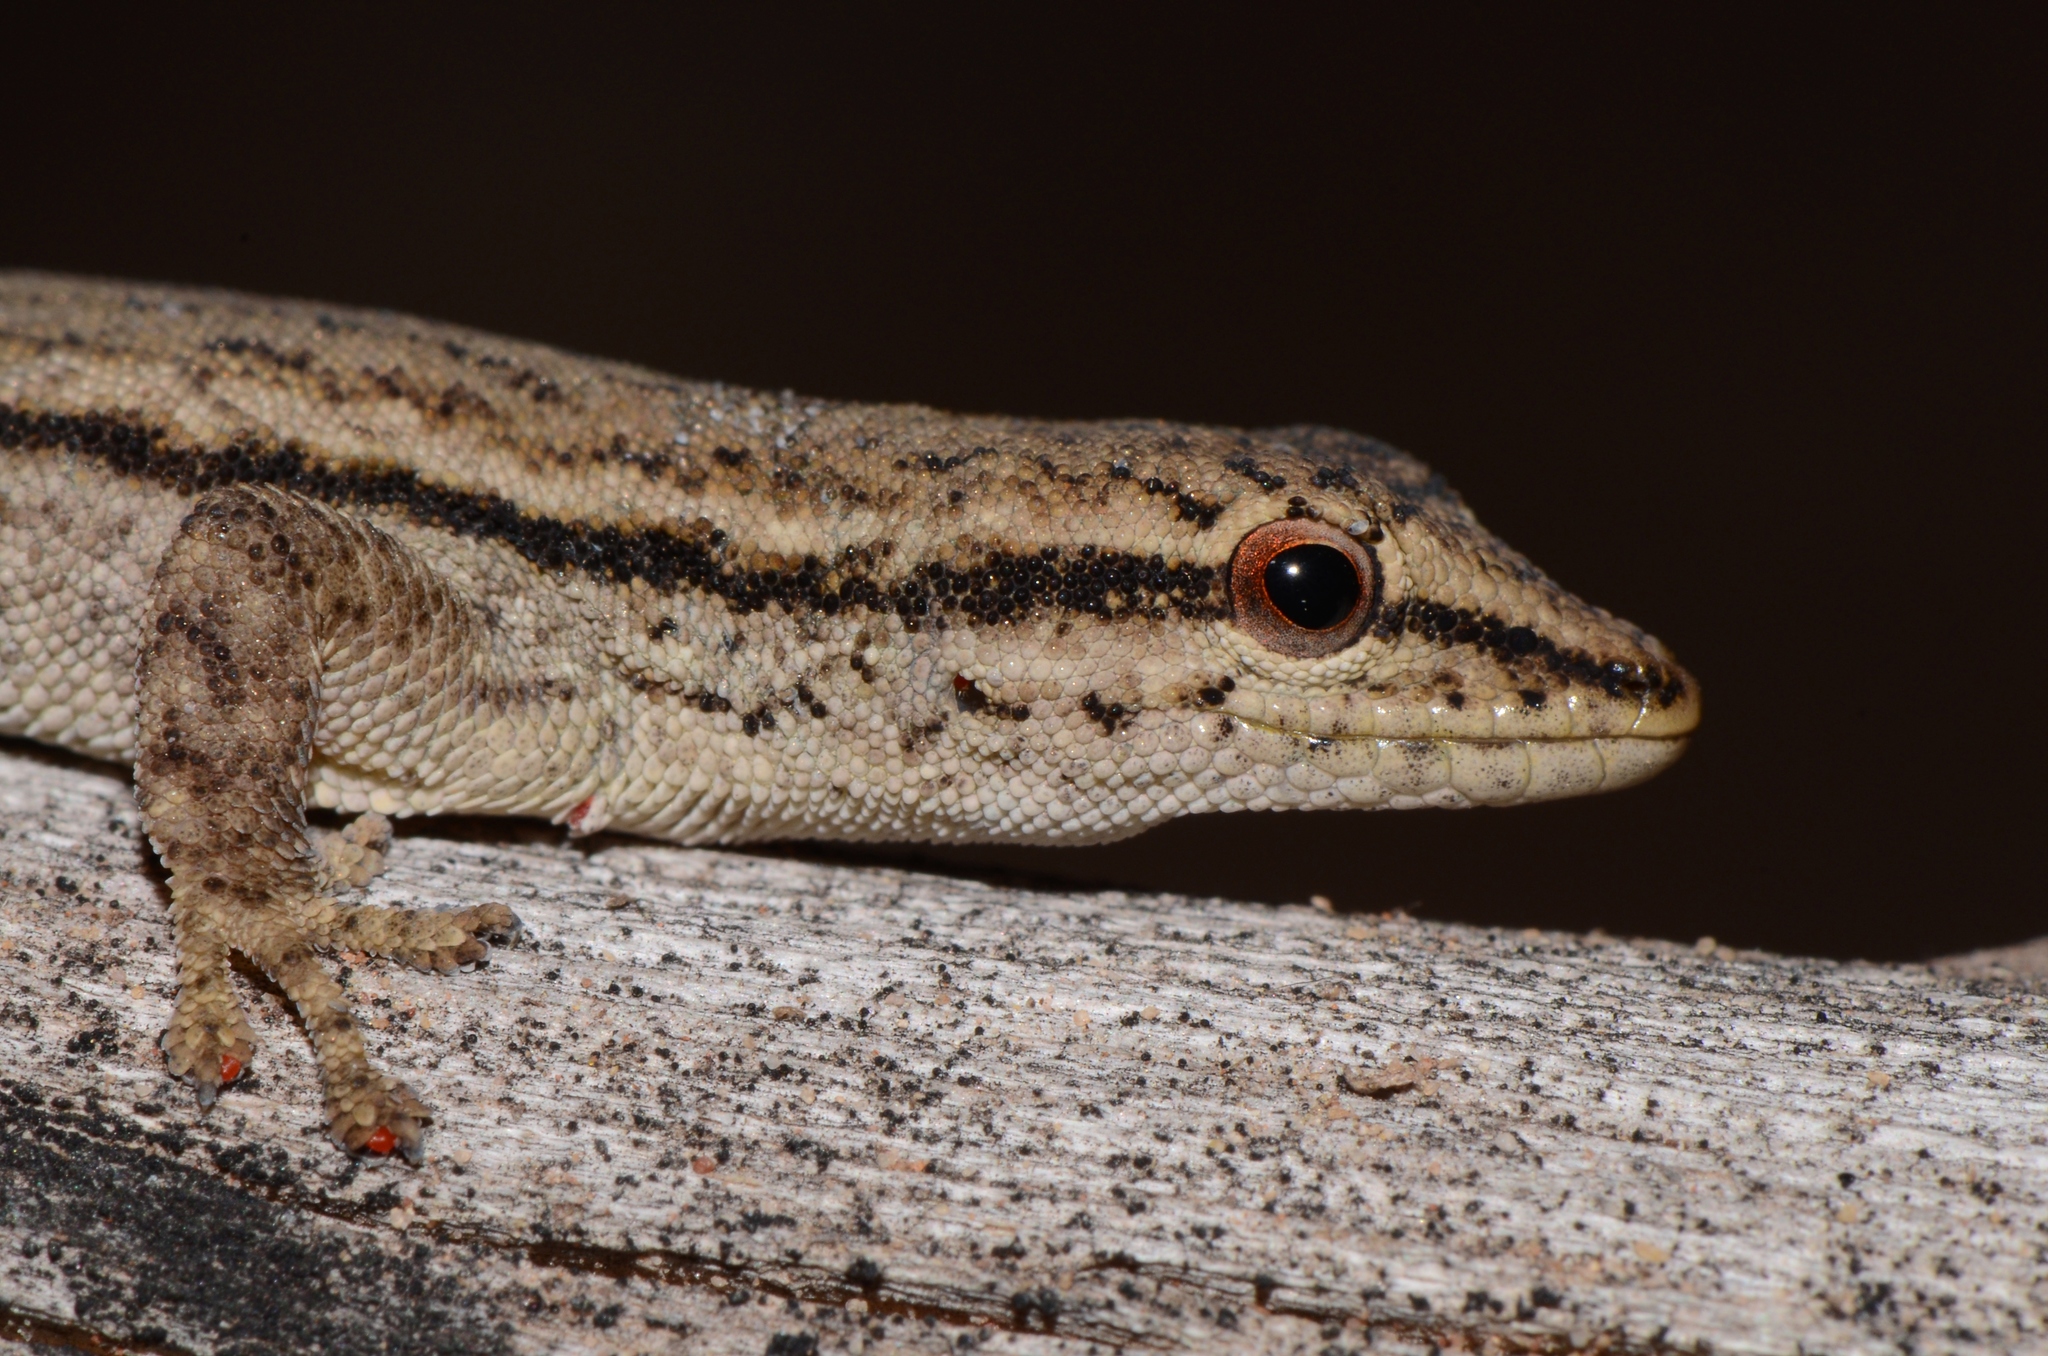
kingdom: Animalia
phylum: Chordata
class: Squamata
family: Gekkonidae
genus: Lygodactylus
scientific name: Lygodactylus capensis
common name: Cape dwarf gecko
